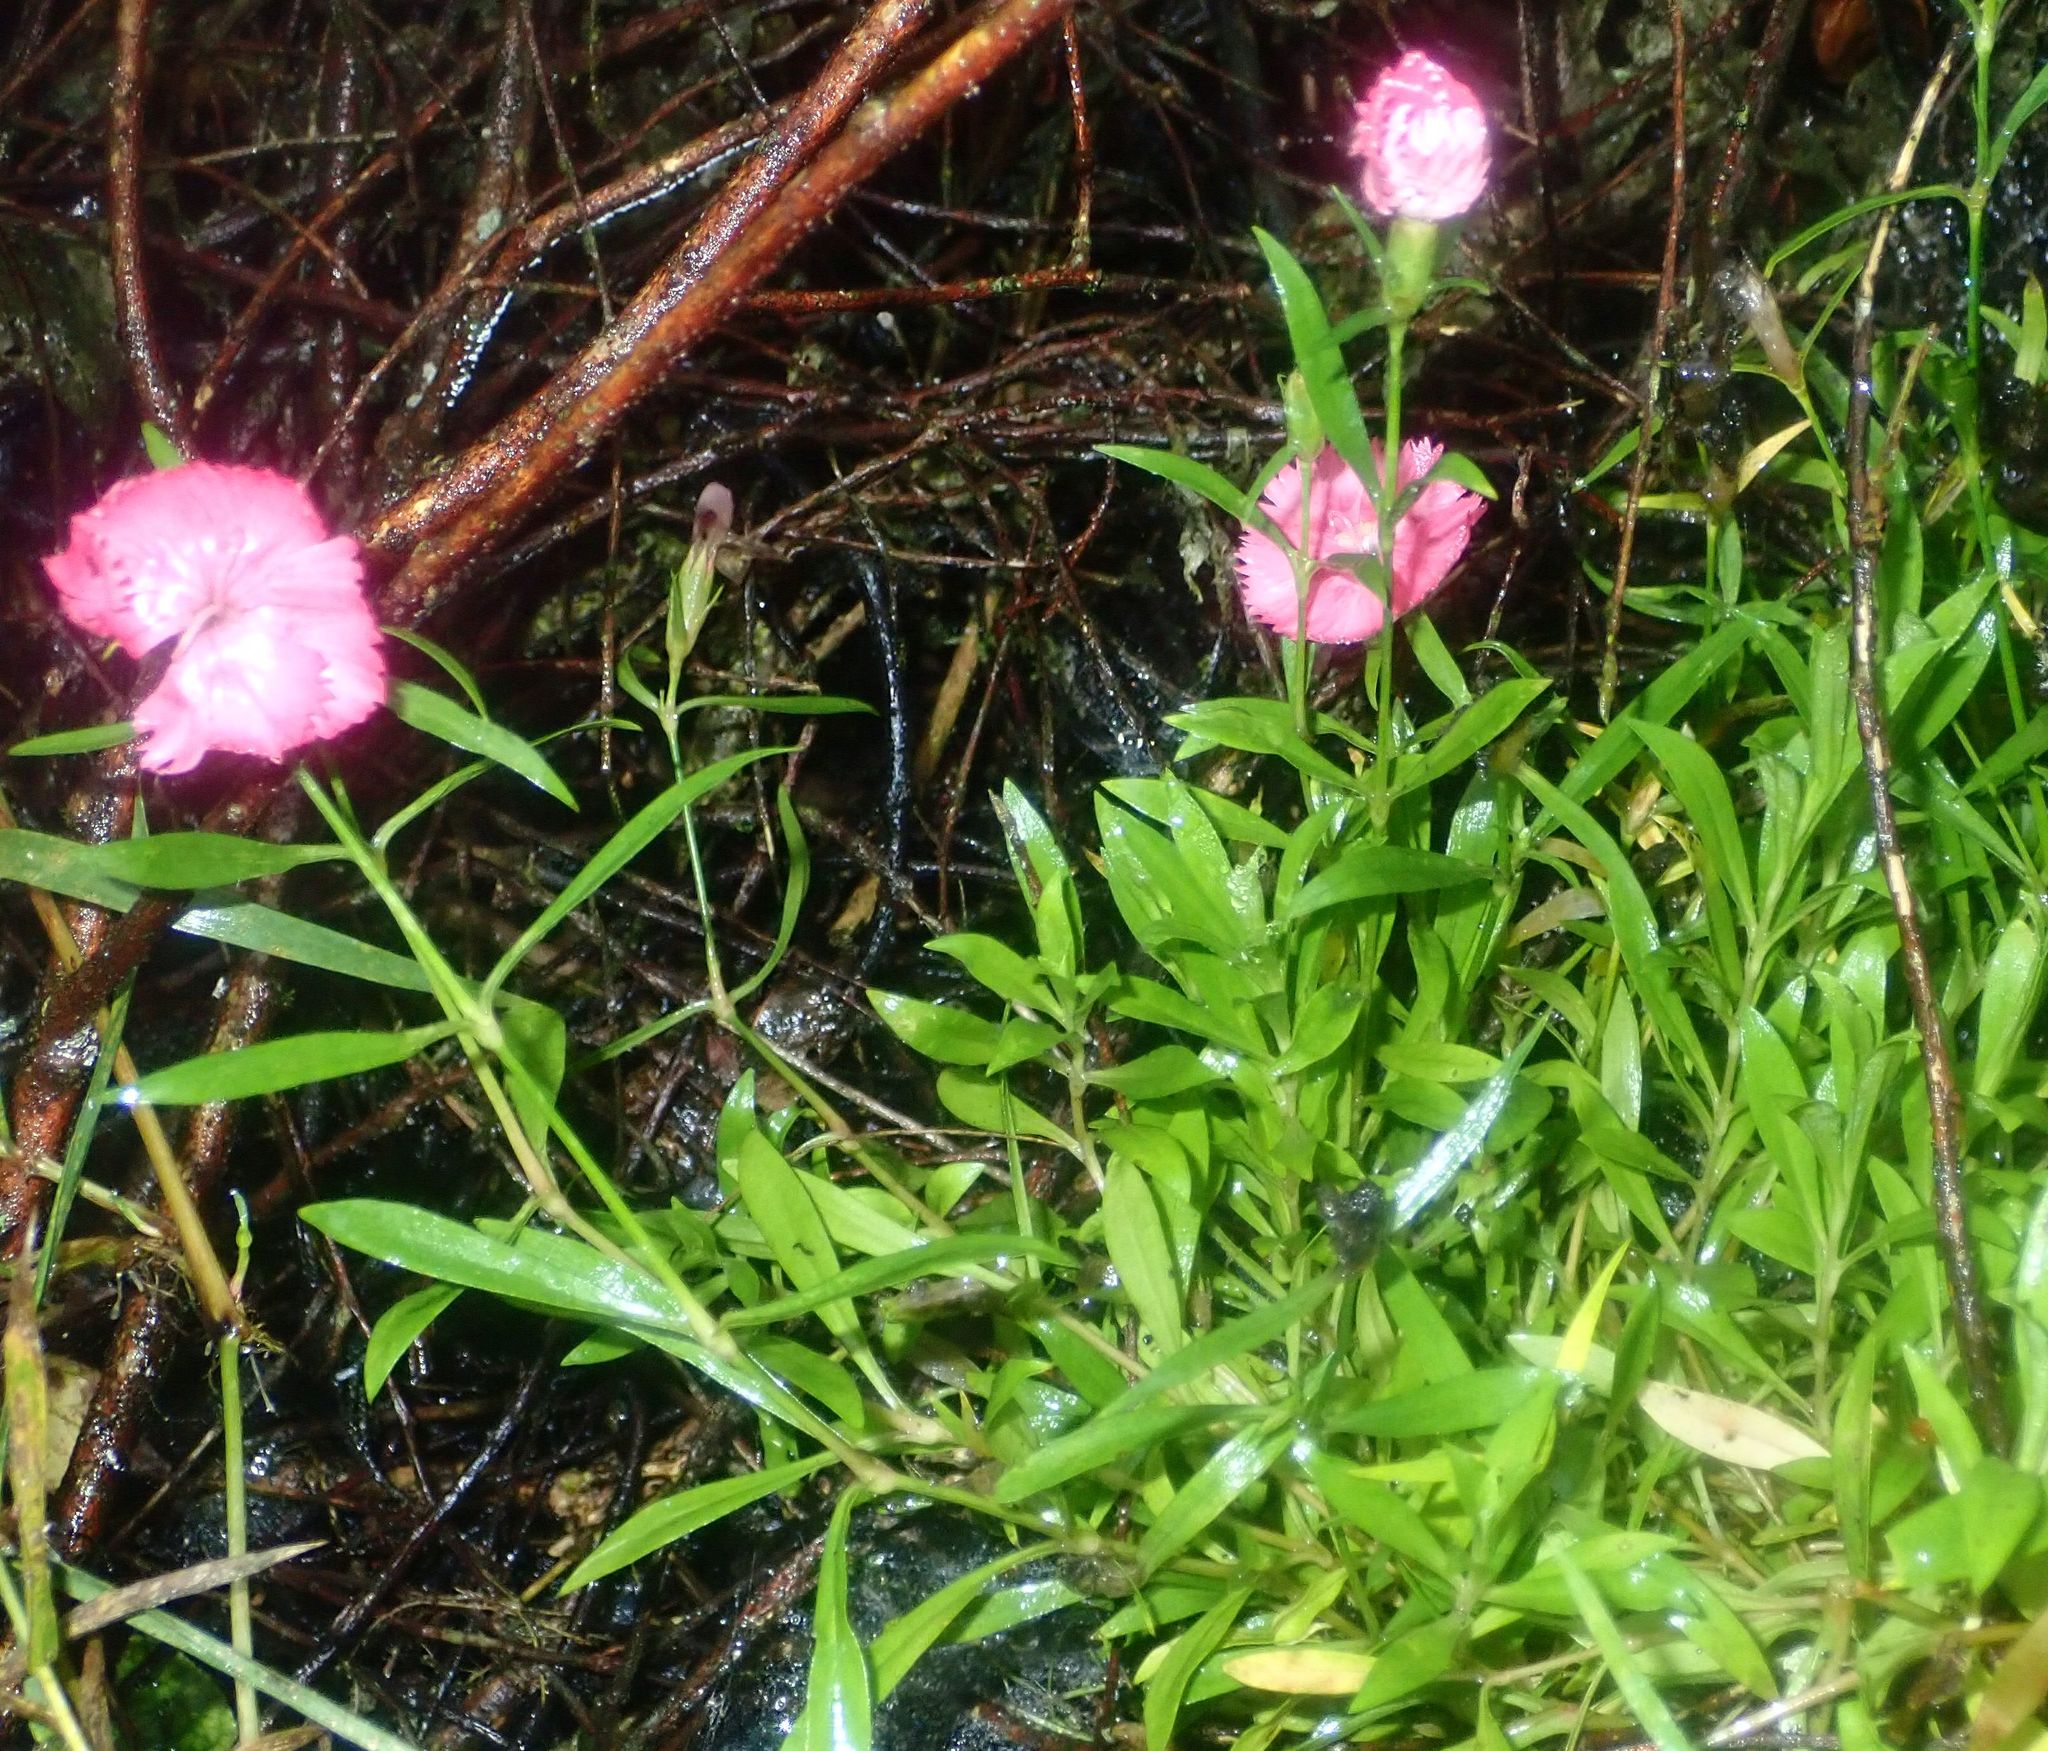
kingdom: Plantae
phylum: Tracheophyta
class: Magnoliopsida
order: Caryophyllales
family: Caryophyllaceae
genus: Dianthus
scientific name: Dianthus barbatus
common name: Sweet-william
